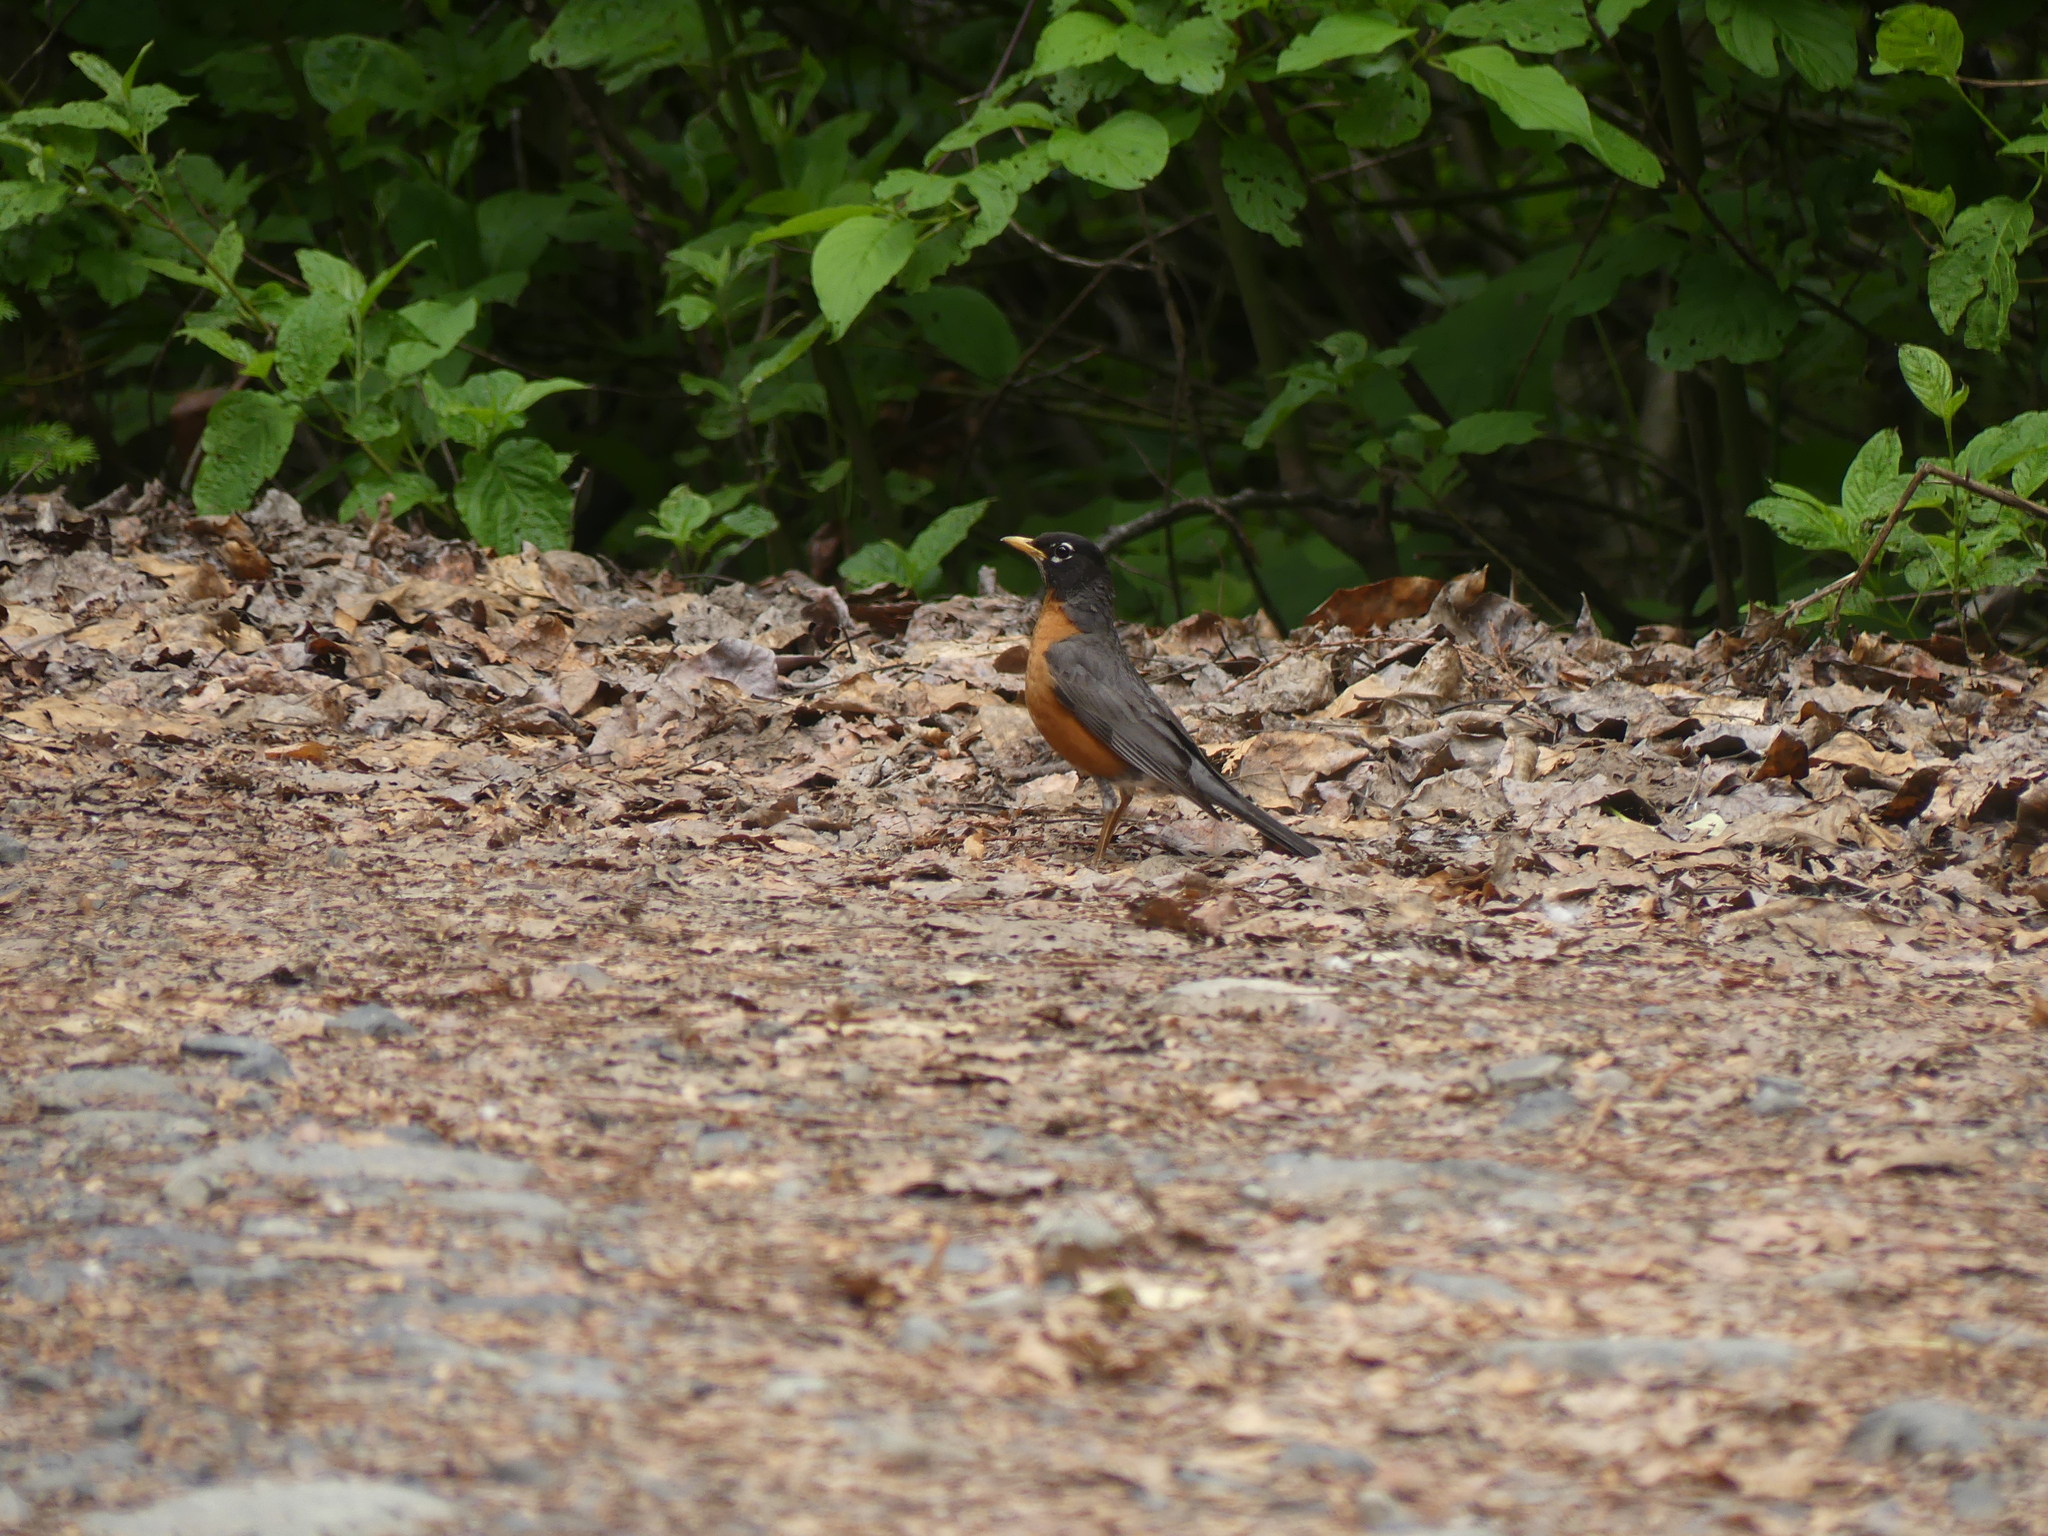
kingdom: Animalia
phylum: Chordata
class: Aves
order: Passeriformes
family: Turdidae
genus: Turdus
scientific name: Turdus migratorius
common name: American robin
